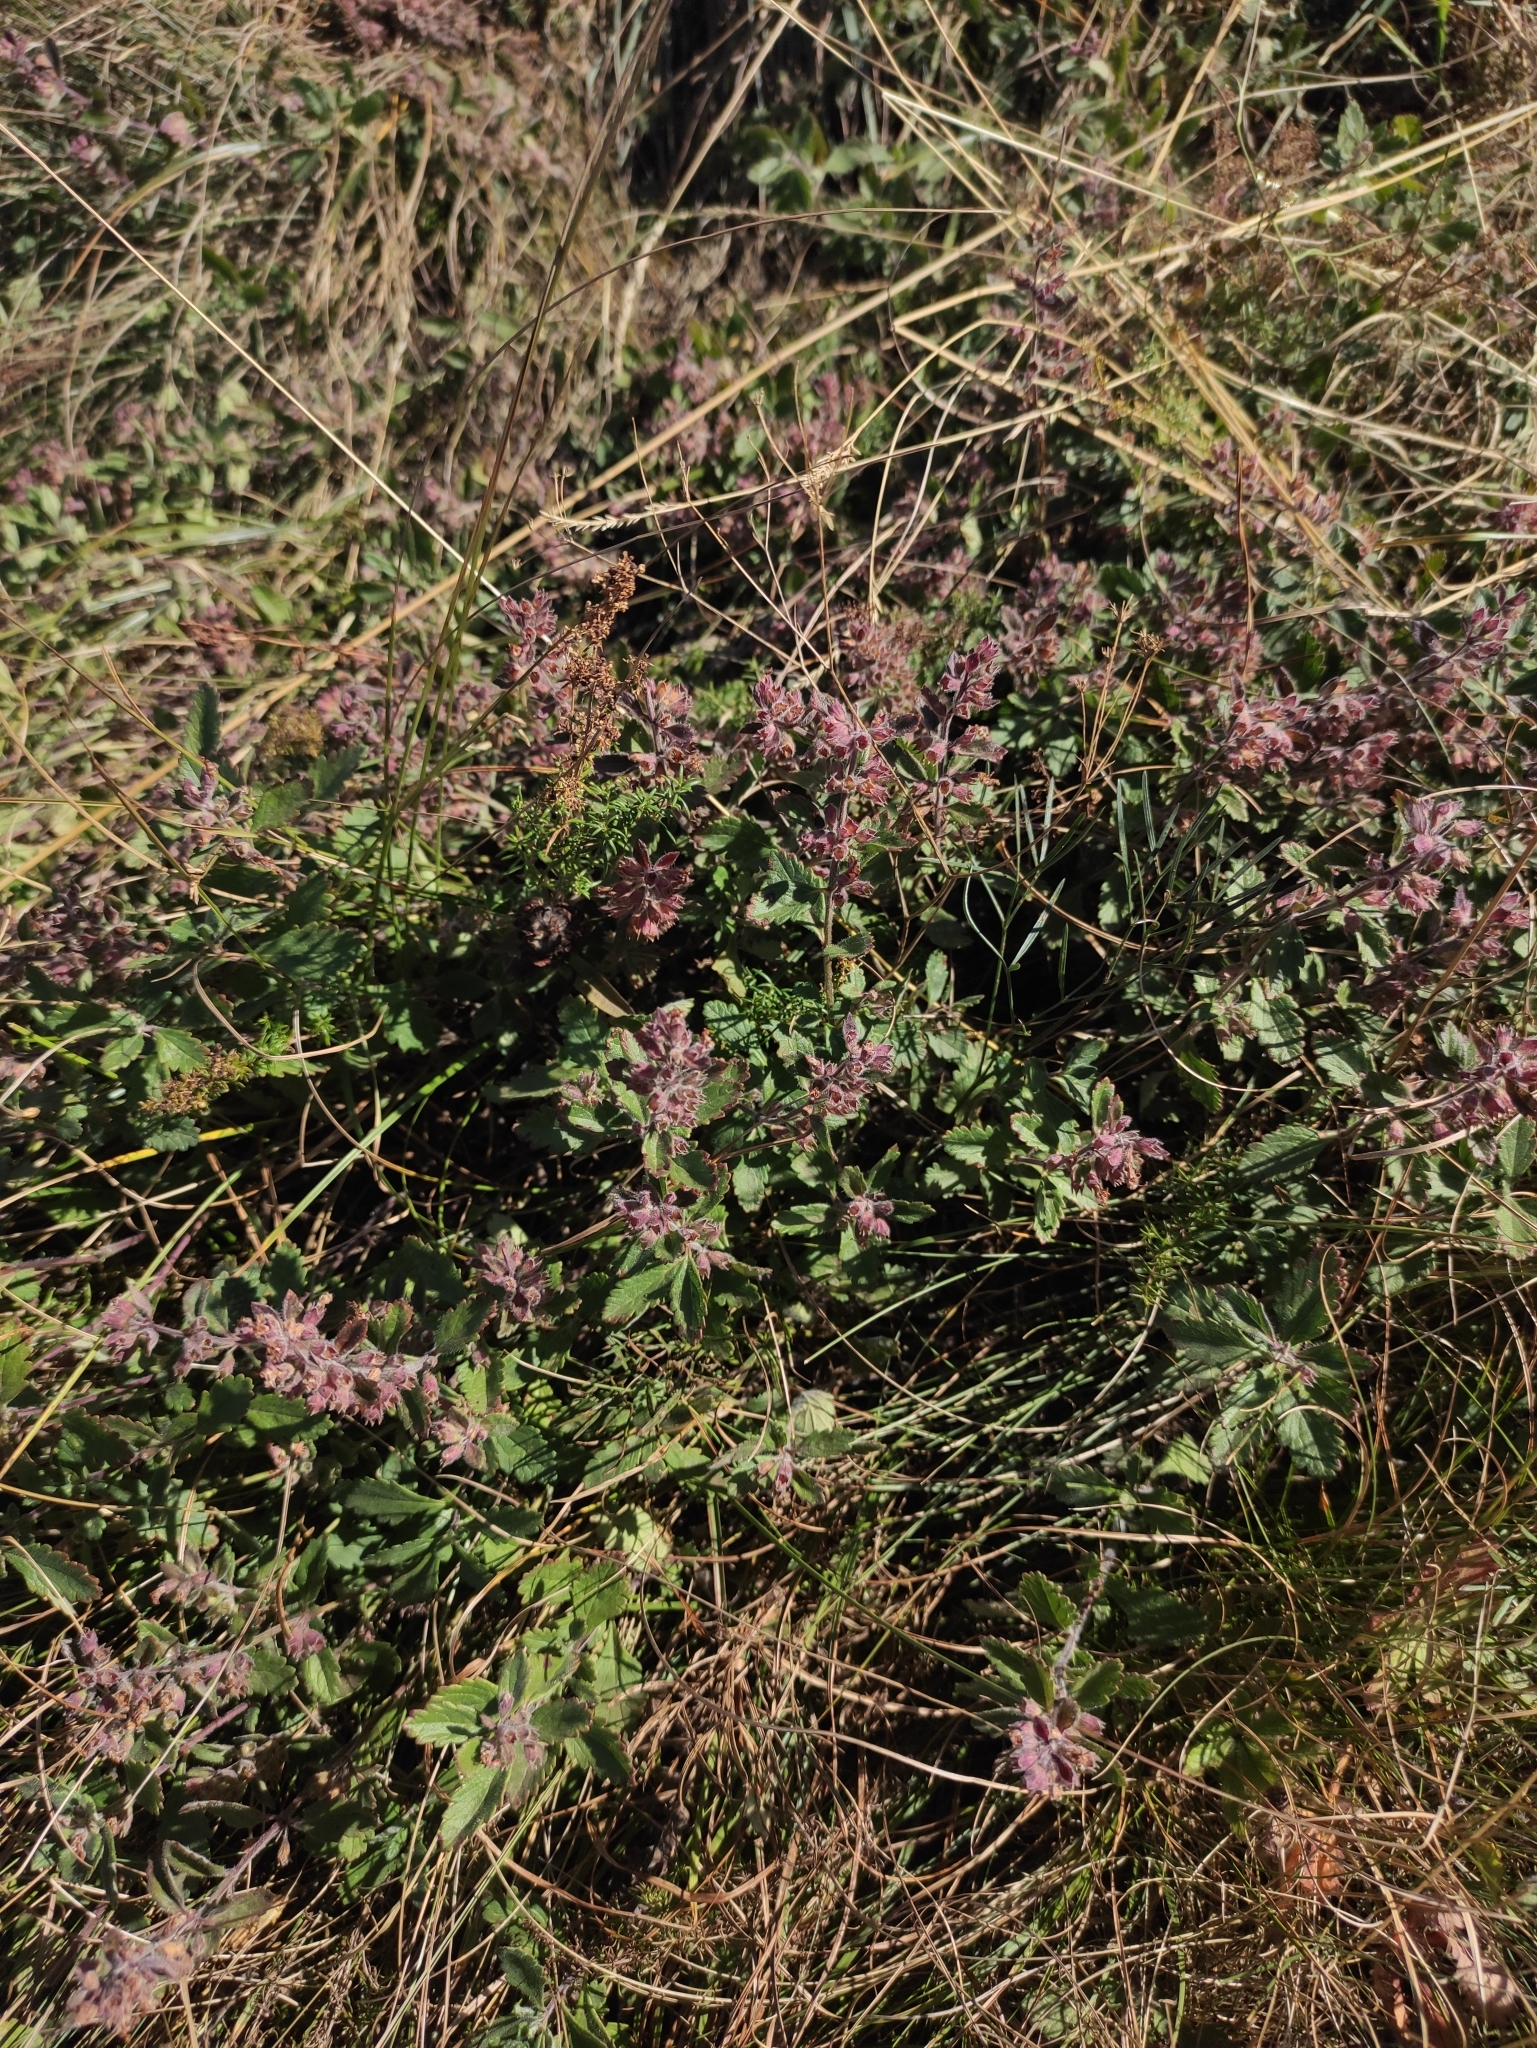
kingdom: Plantae
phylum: Tracheophyta
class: Magnoliopsida
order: Lamiales
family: Lamiaceae
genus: Teucrium
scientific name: Teucrium chamaedrys
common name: Wall germander
